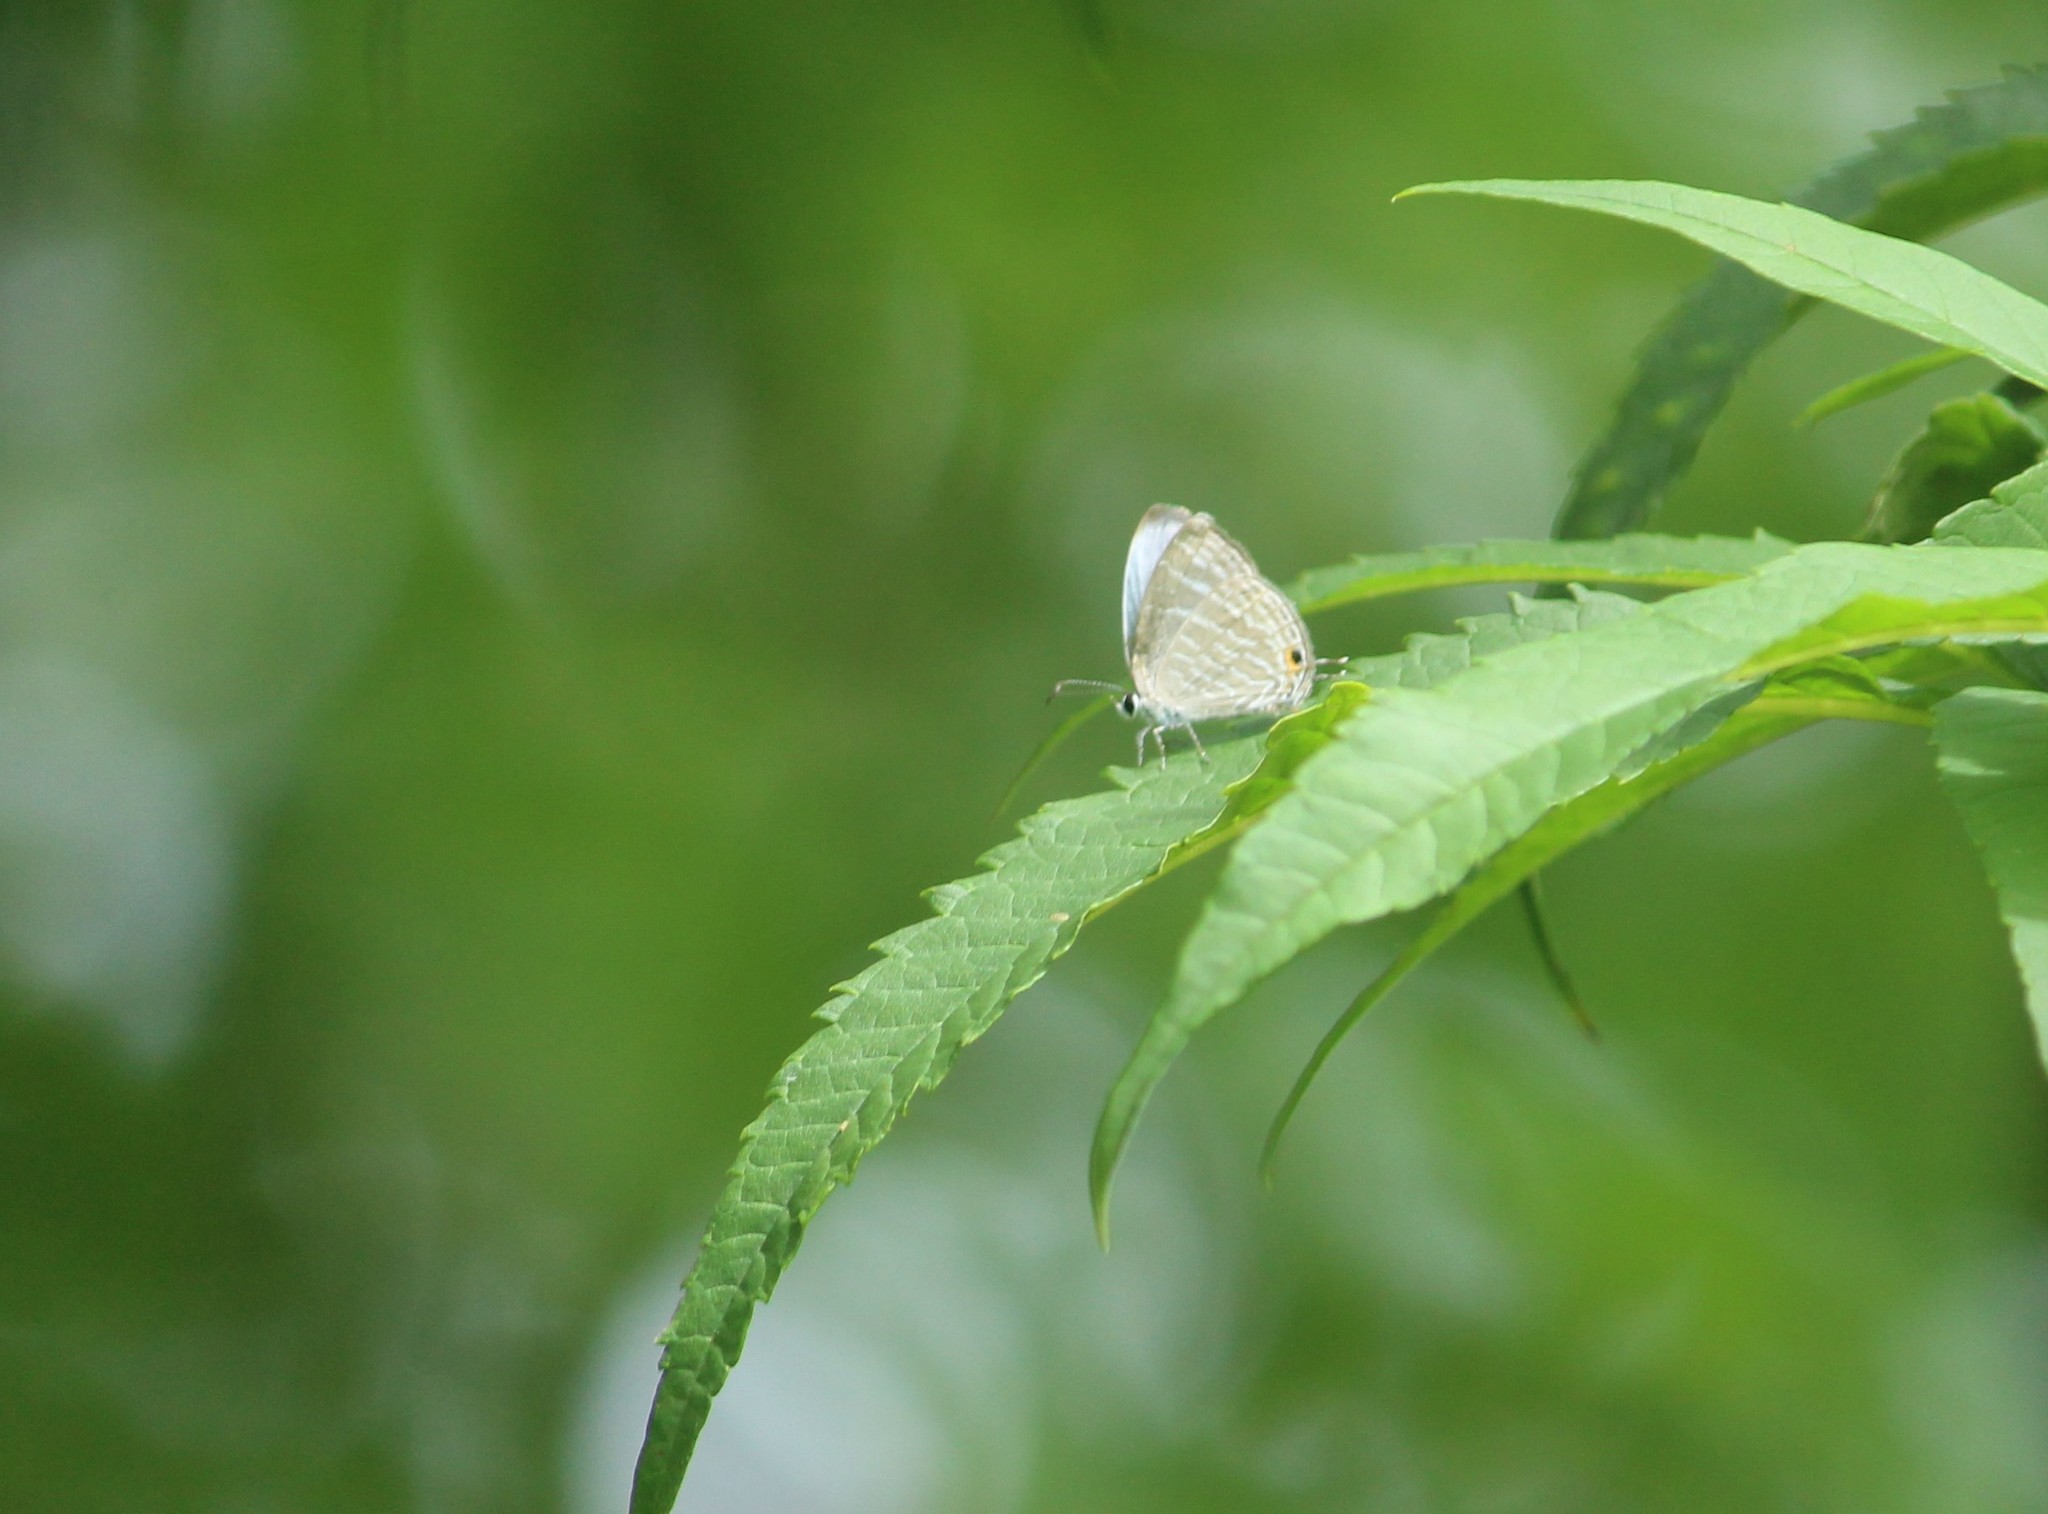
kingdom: Animalia
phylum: Arthropoda
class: Insecta
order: Lepidoptera
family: Lycaenidae
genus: Jamides
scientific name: Jamides celeno
